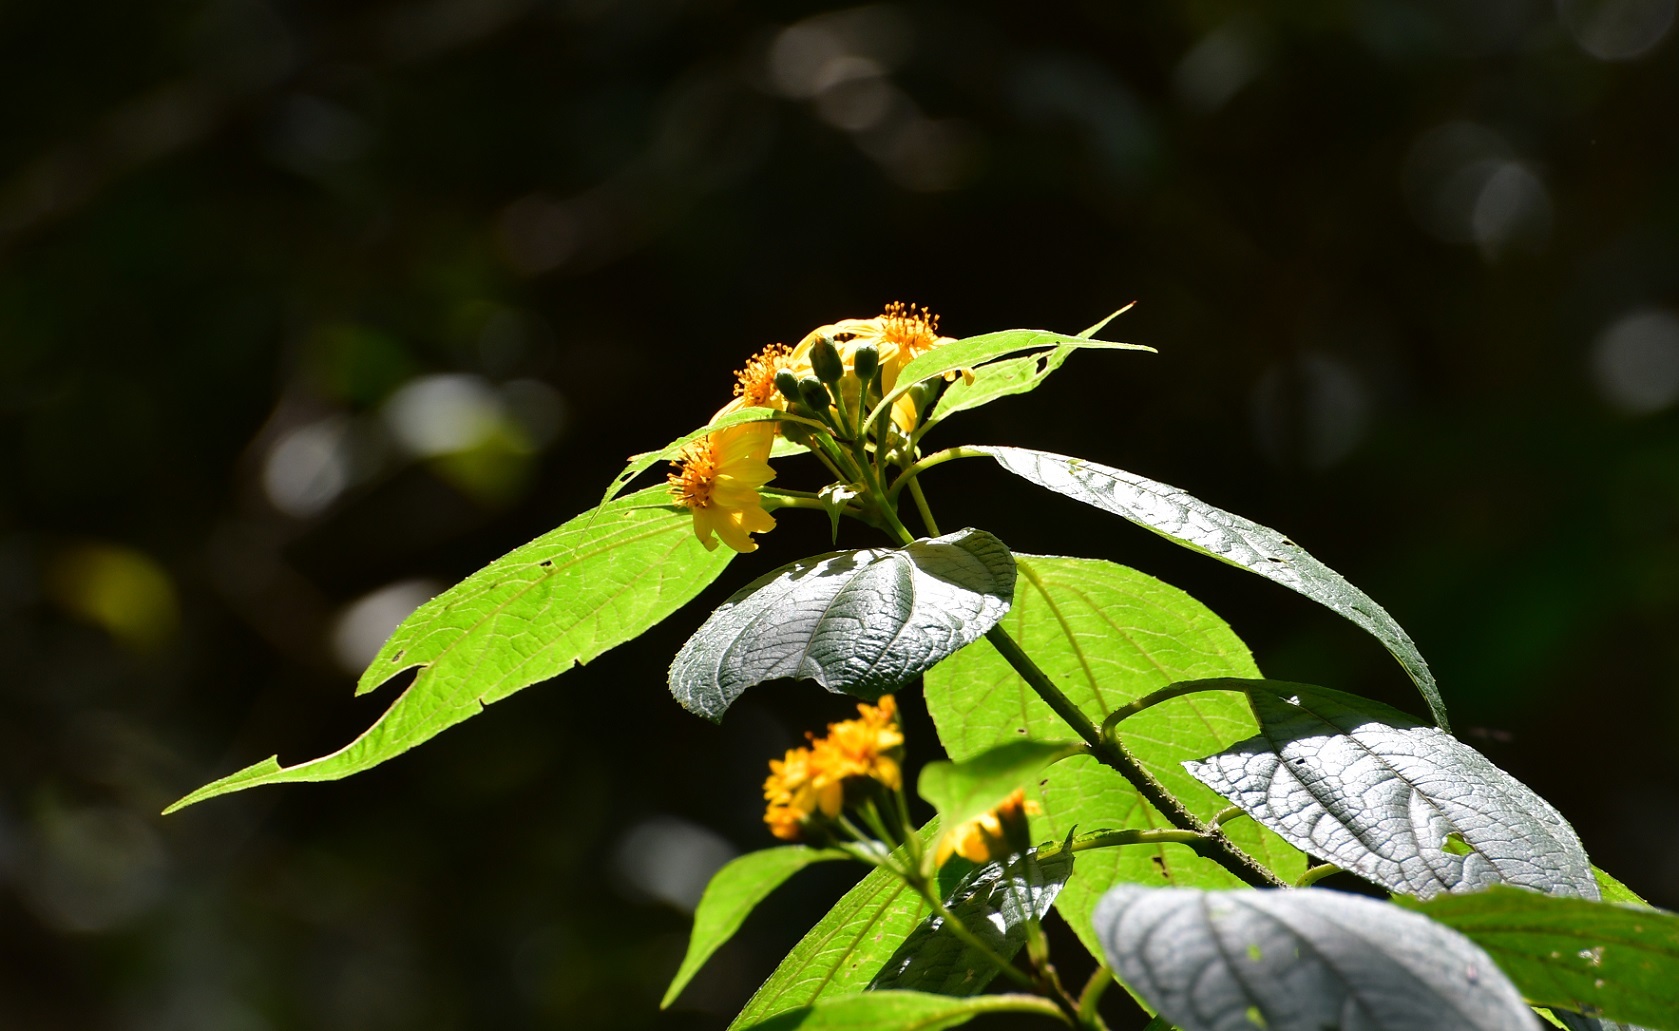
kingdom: Plantae
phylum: Tracheophyta
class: Magnoliopsida
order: Asterales
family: Asteraceae
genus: Perymenium
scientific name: Perymenium grande
